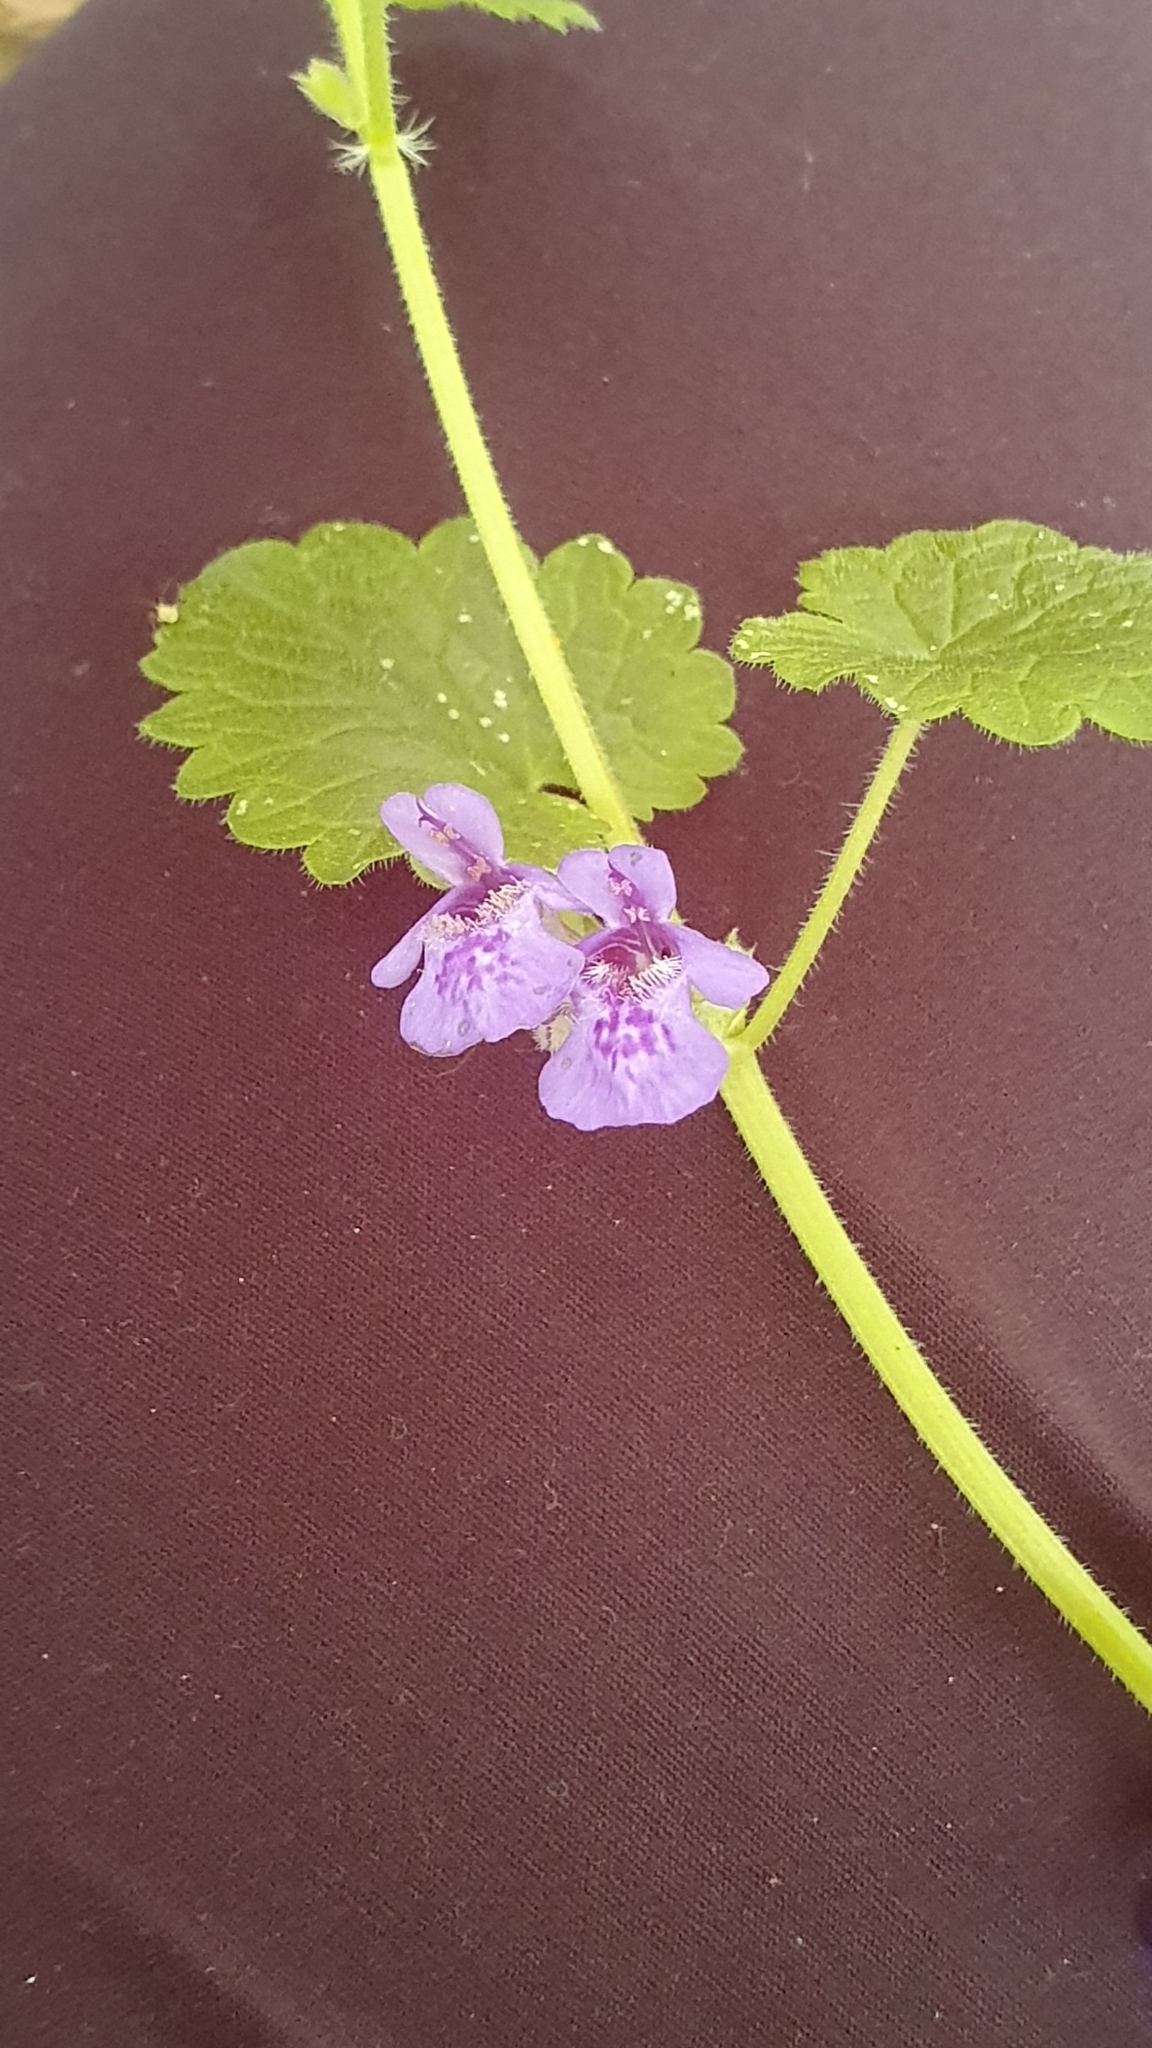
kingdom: Plantae
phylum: Tracheophyta
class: Magnoliopsida
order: Lamiales
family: Lamiaceae
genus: Glechoma
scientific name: Glechoma hederacea
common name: Ground ivy
